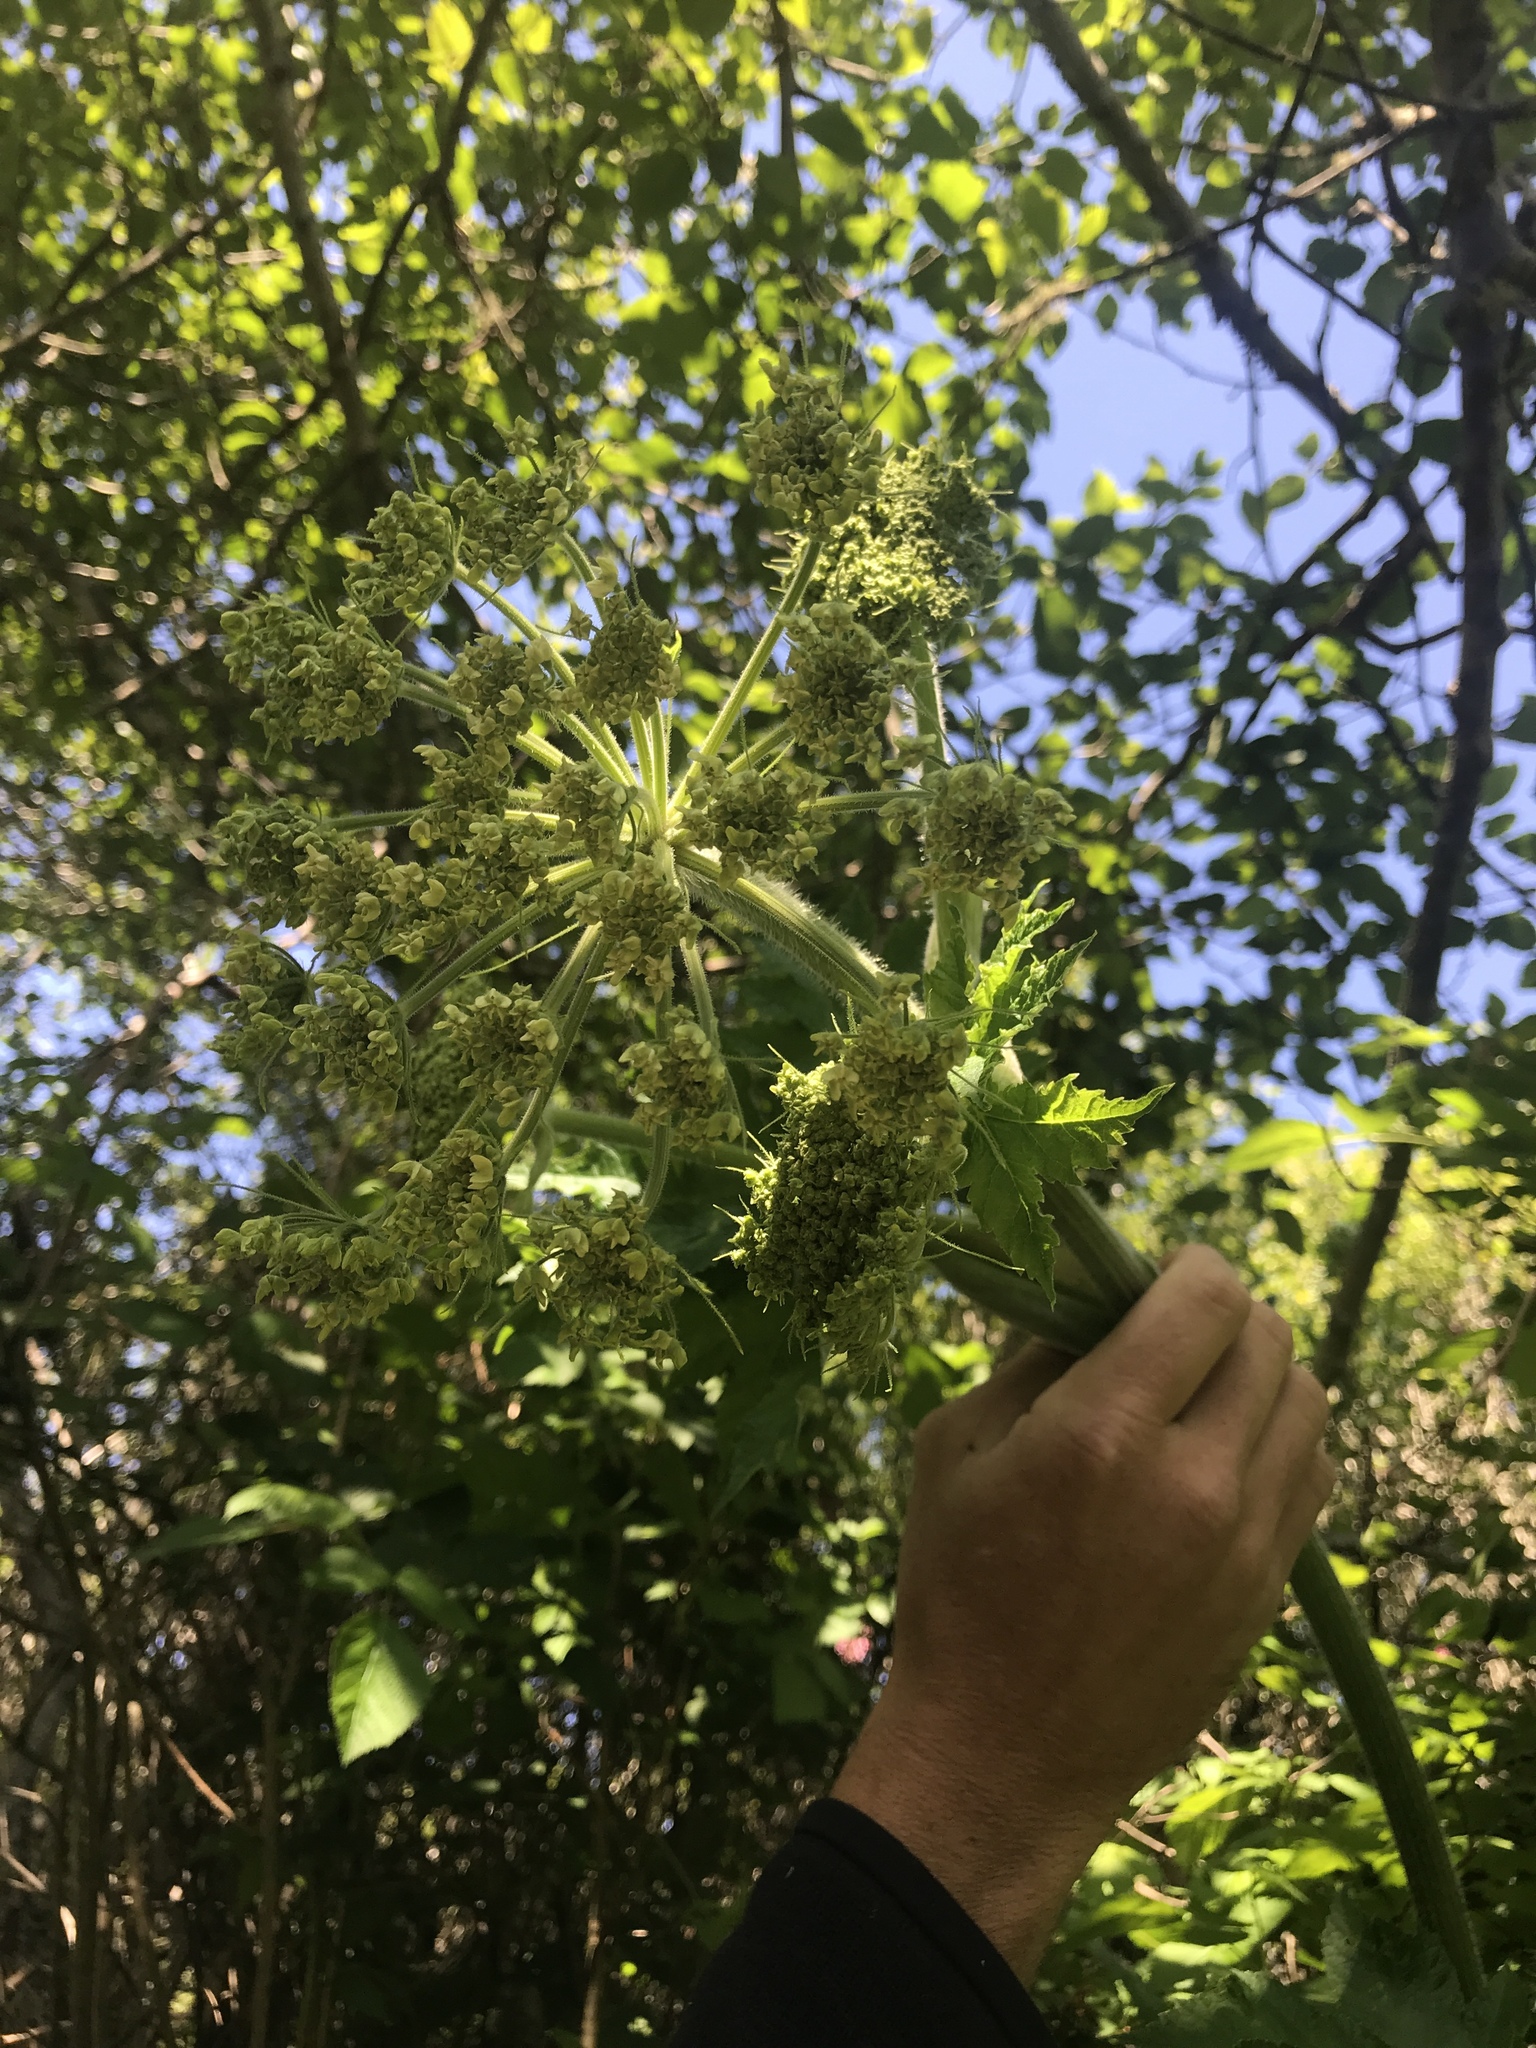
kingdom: Plantae
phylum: Tracheophyta
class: Magnoliopsida
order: Apiales
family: Apiaceae
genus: Heracleum
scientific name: Heracleum maximum
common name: American cow parsnip
